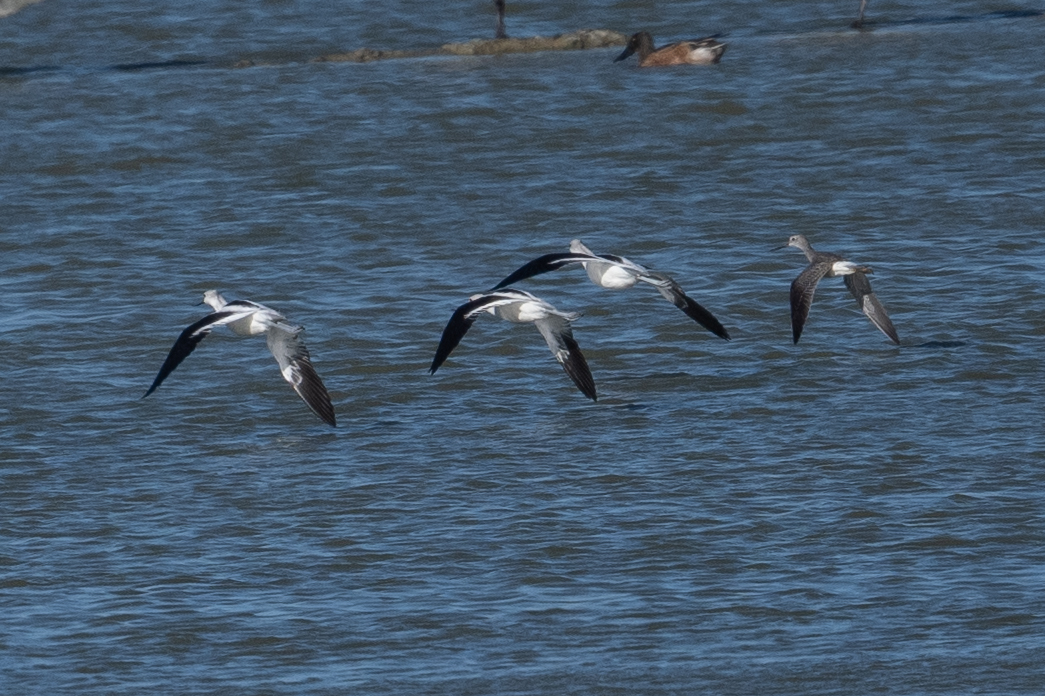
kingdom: Animalia
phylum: Chordata
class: Aves
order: Charadriiformes
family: Scolopacidae
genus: Tringa
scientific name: Tringa melanoleuca
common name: Greater yellowlegs
